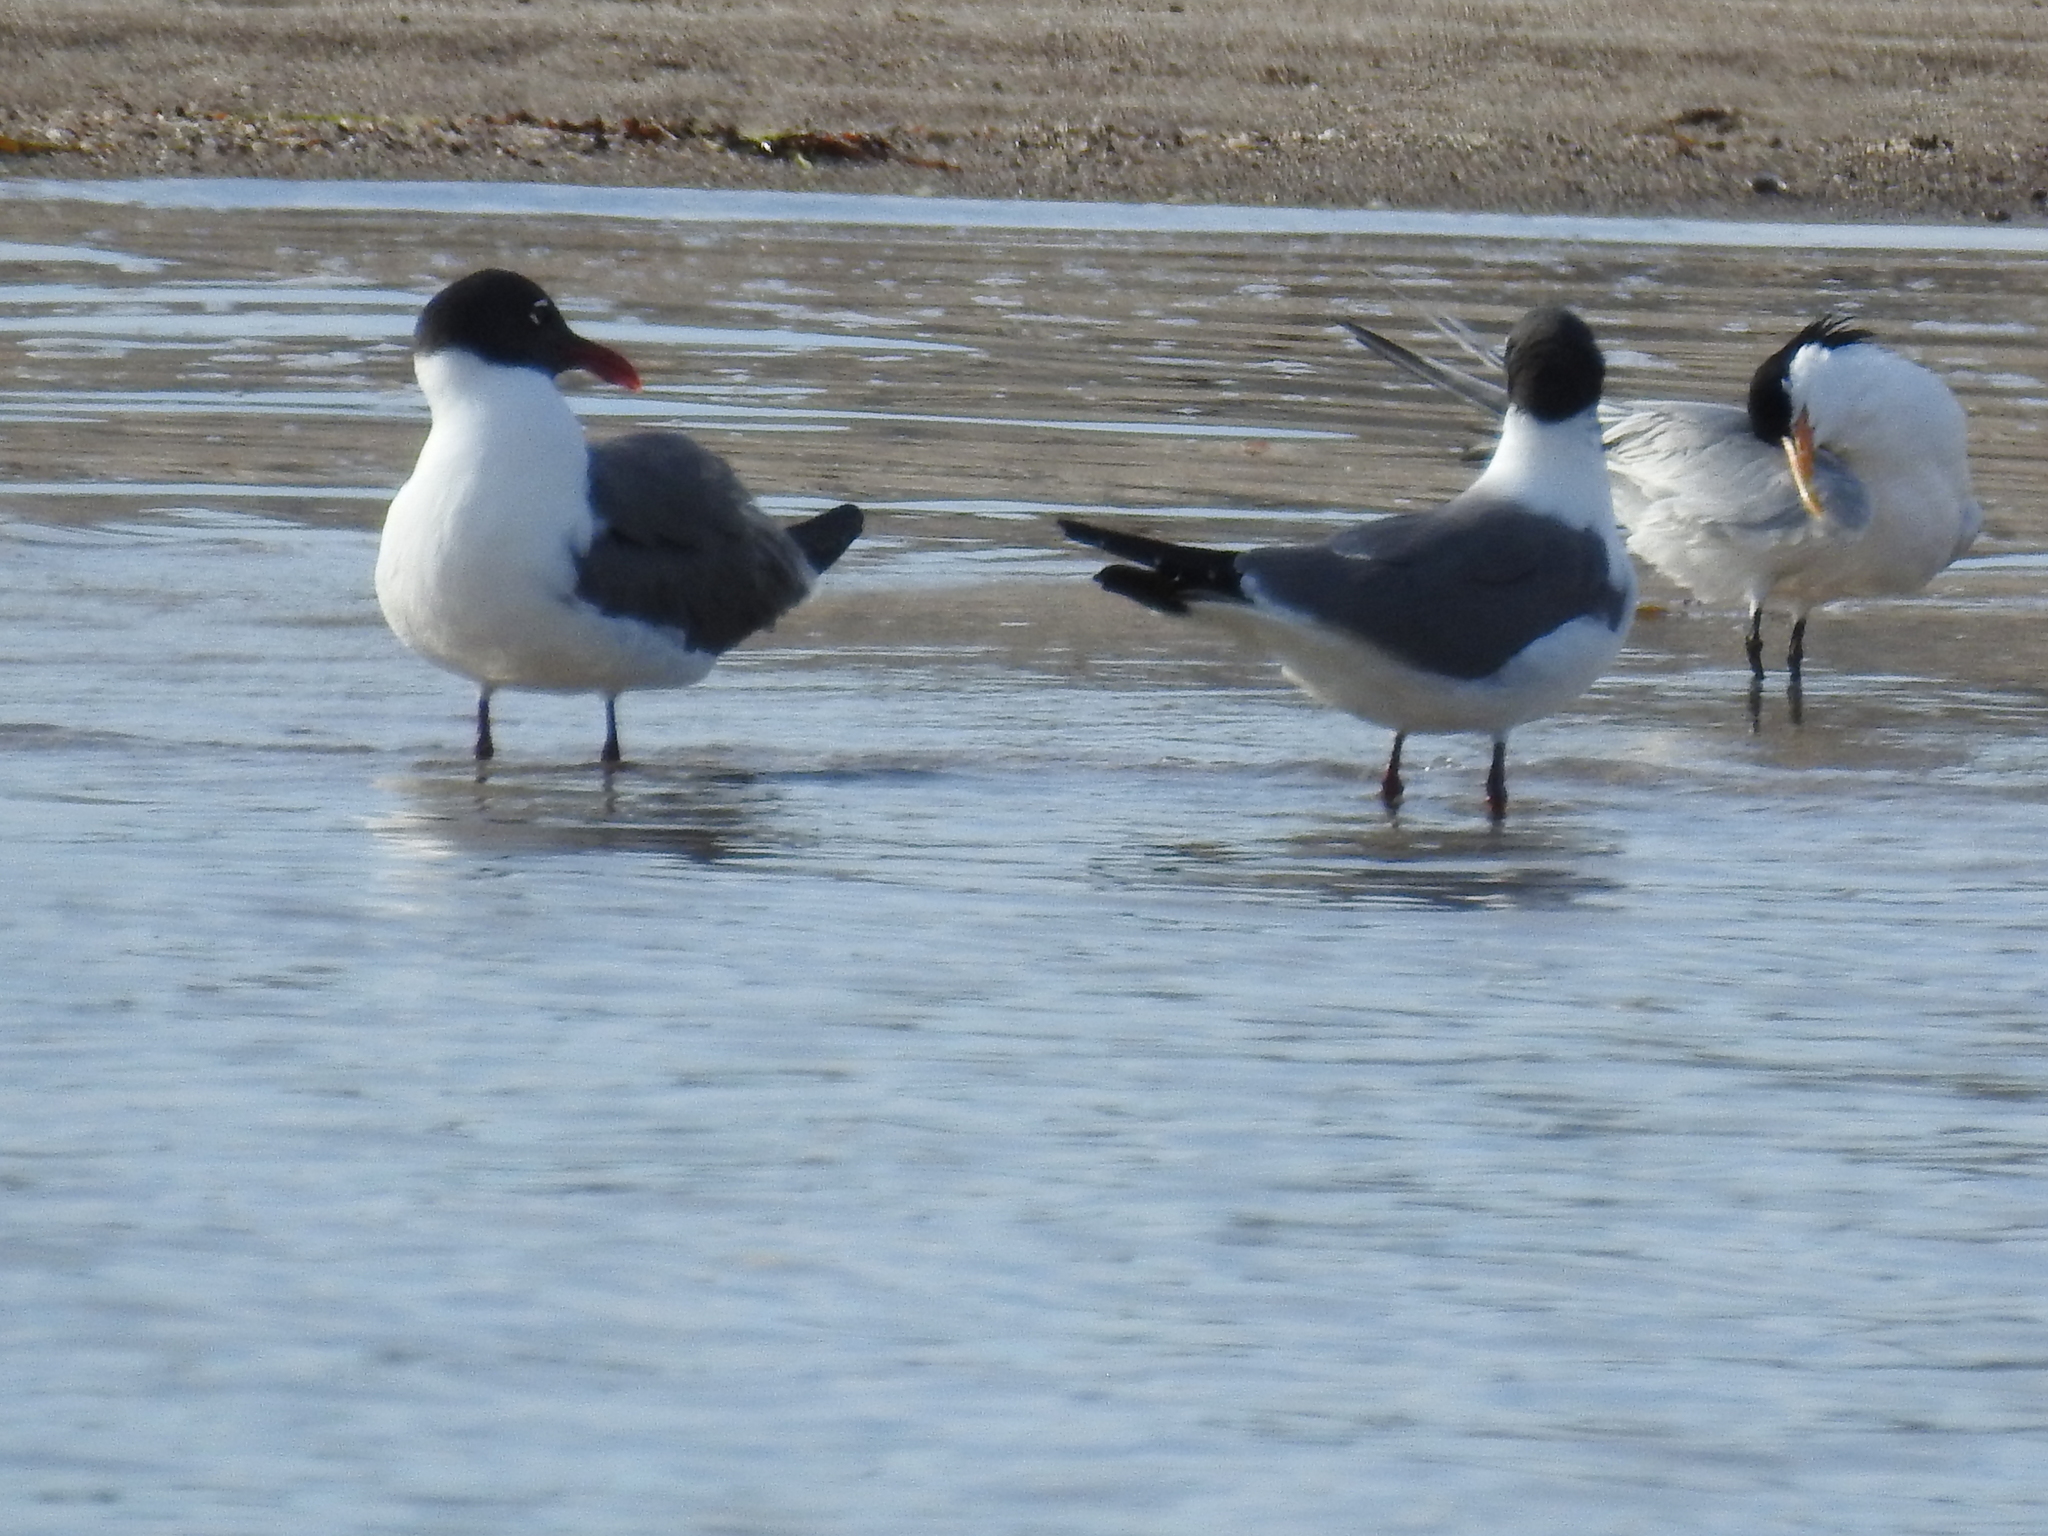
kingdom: Animalia
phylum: Chordata
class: Aves
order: Charadriiformes
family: Laridae
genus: Leucophaeus
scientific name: Leucophaeus atricilla
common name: Laughing gull
